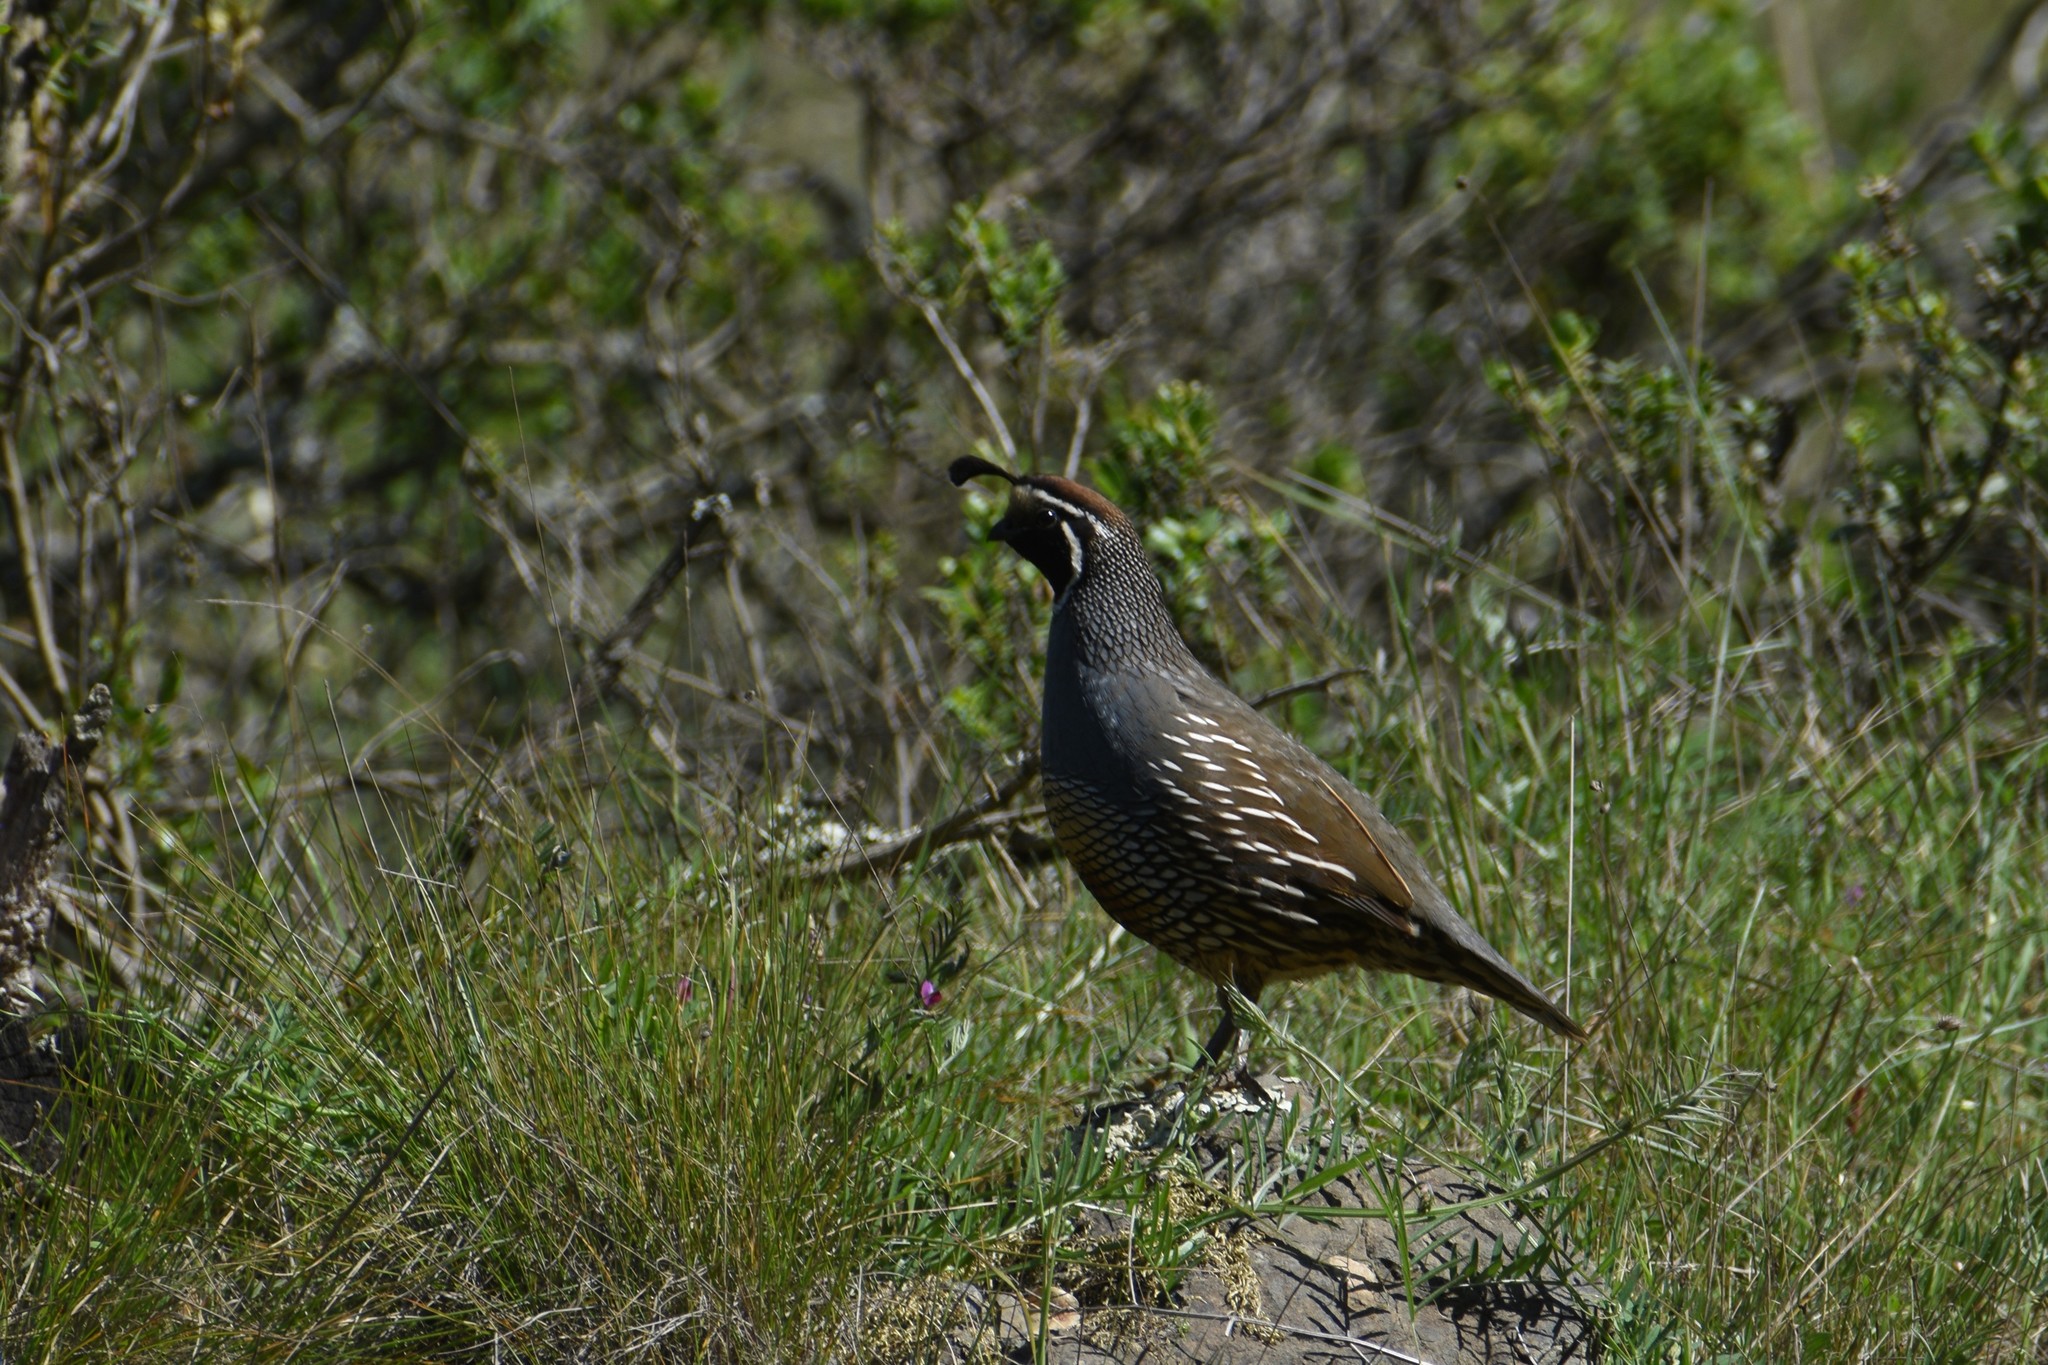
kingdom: Animalia
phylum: Chordata
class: Aves
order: Galliformes
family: Odontophoridae
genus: Callipepla
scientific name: Callipepla californica
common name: California quail
